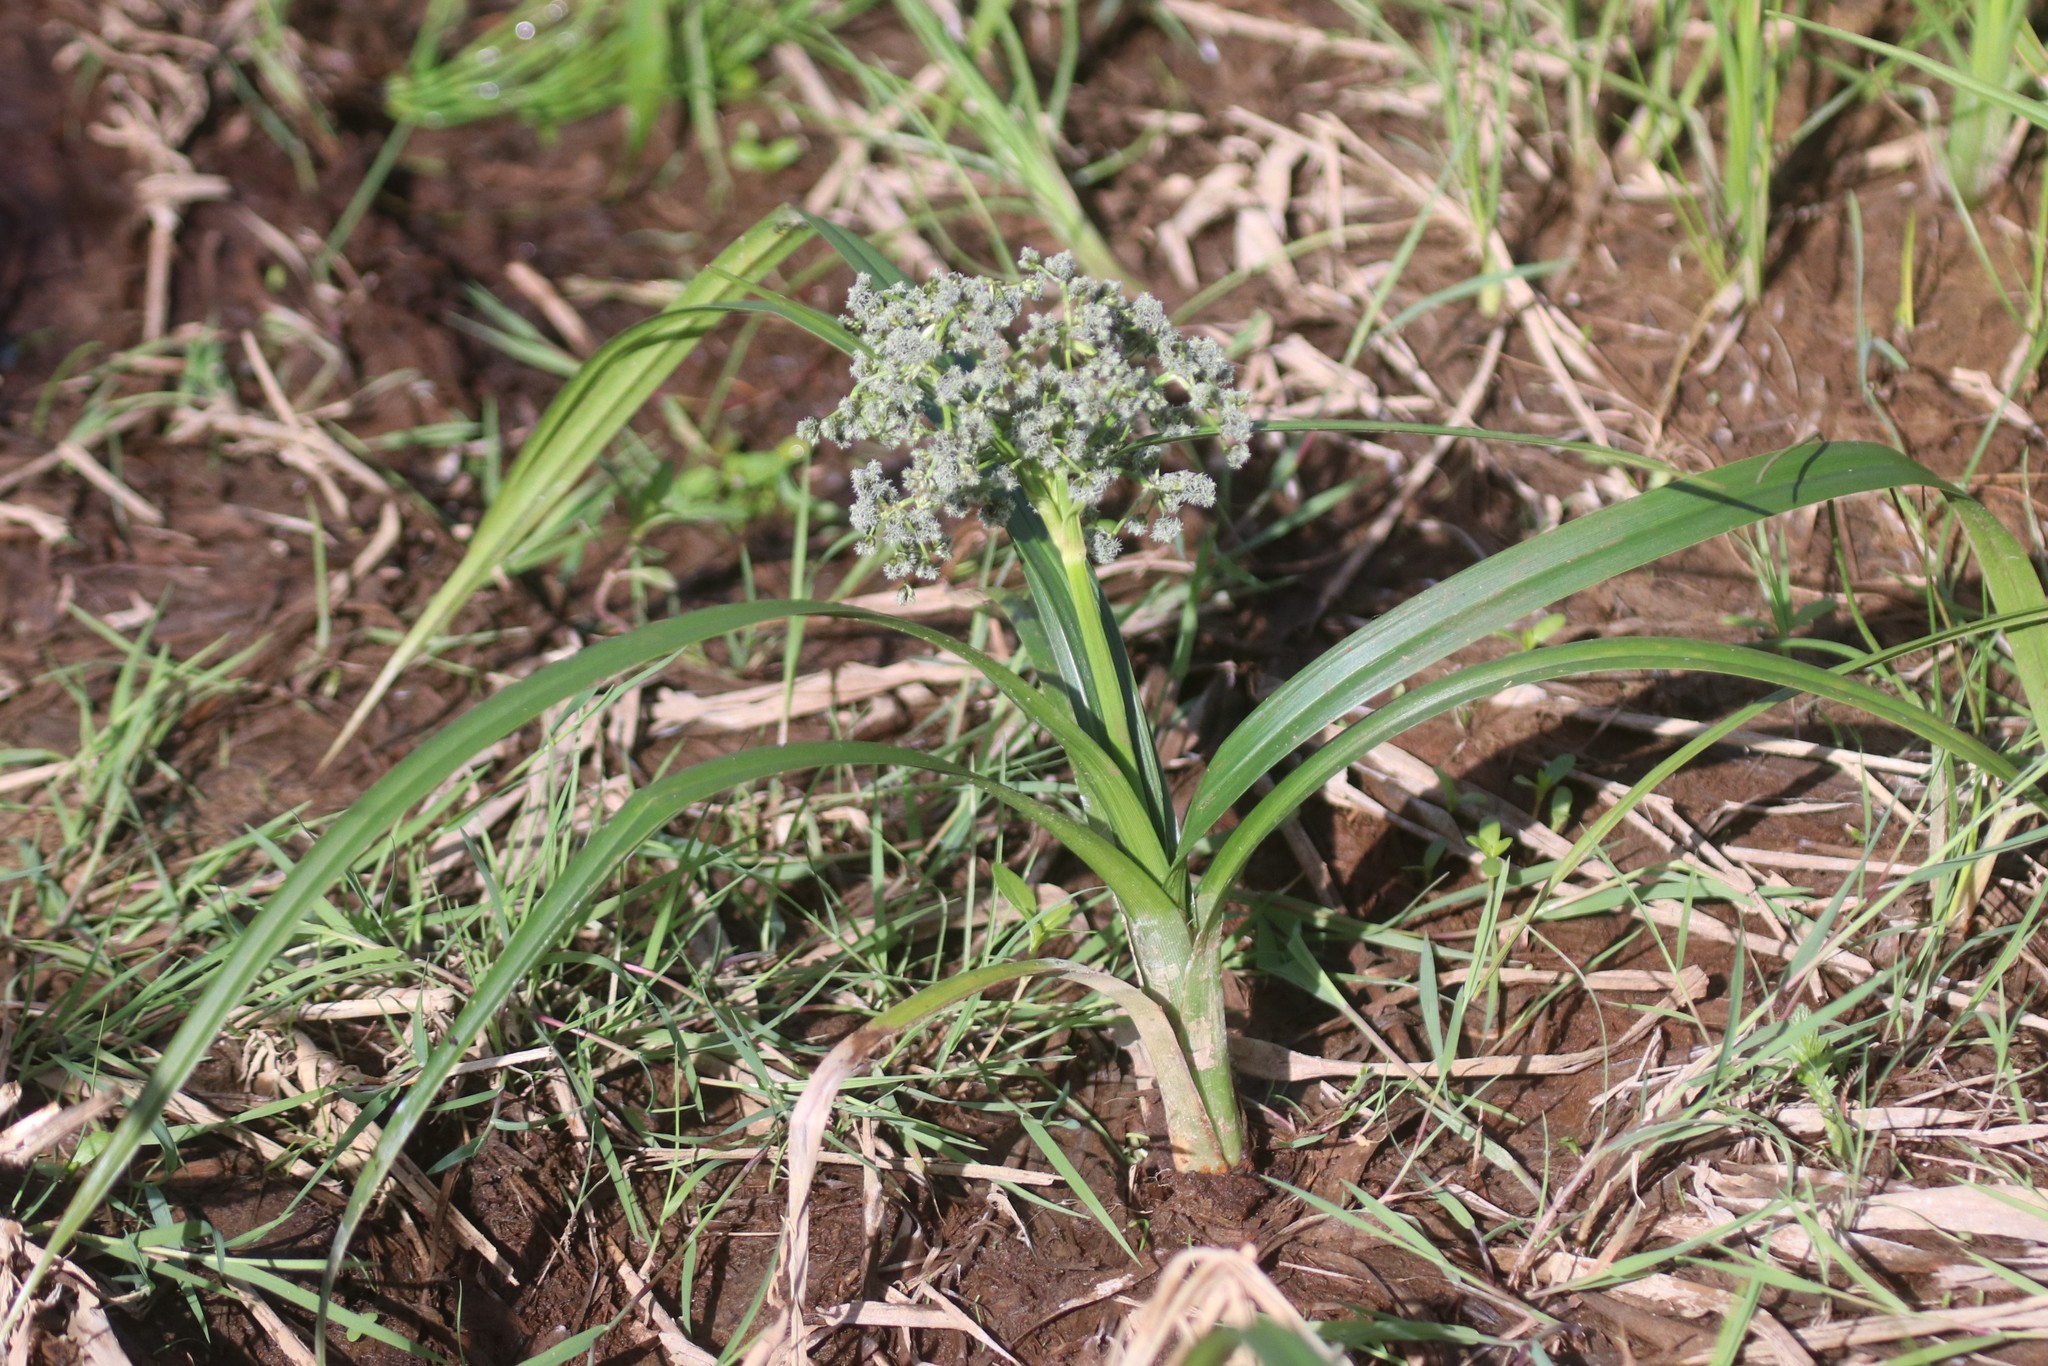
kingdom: Plantae
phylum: Tracheophyta
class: Liliopsida
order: Poales
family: Cyperaceae
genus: Scirpus
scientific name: Scirpus sylvaticus
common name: Wood club-rush
